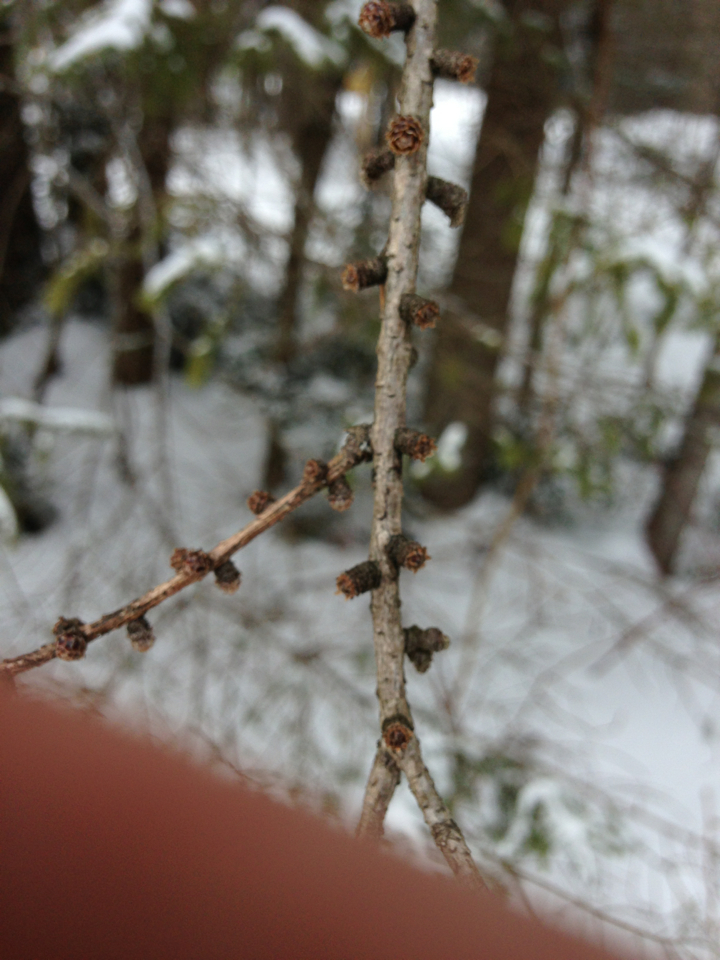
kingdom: Plantae
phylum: Tracheophyta
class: Pinopsida
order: Pinales
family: Pinaceae
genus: Larix
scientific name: Larix laricina
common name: American larch
